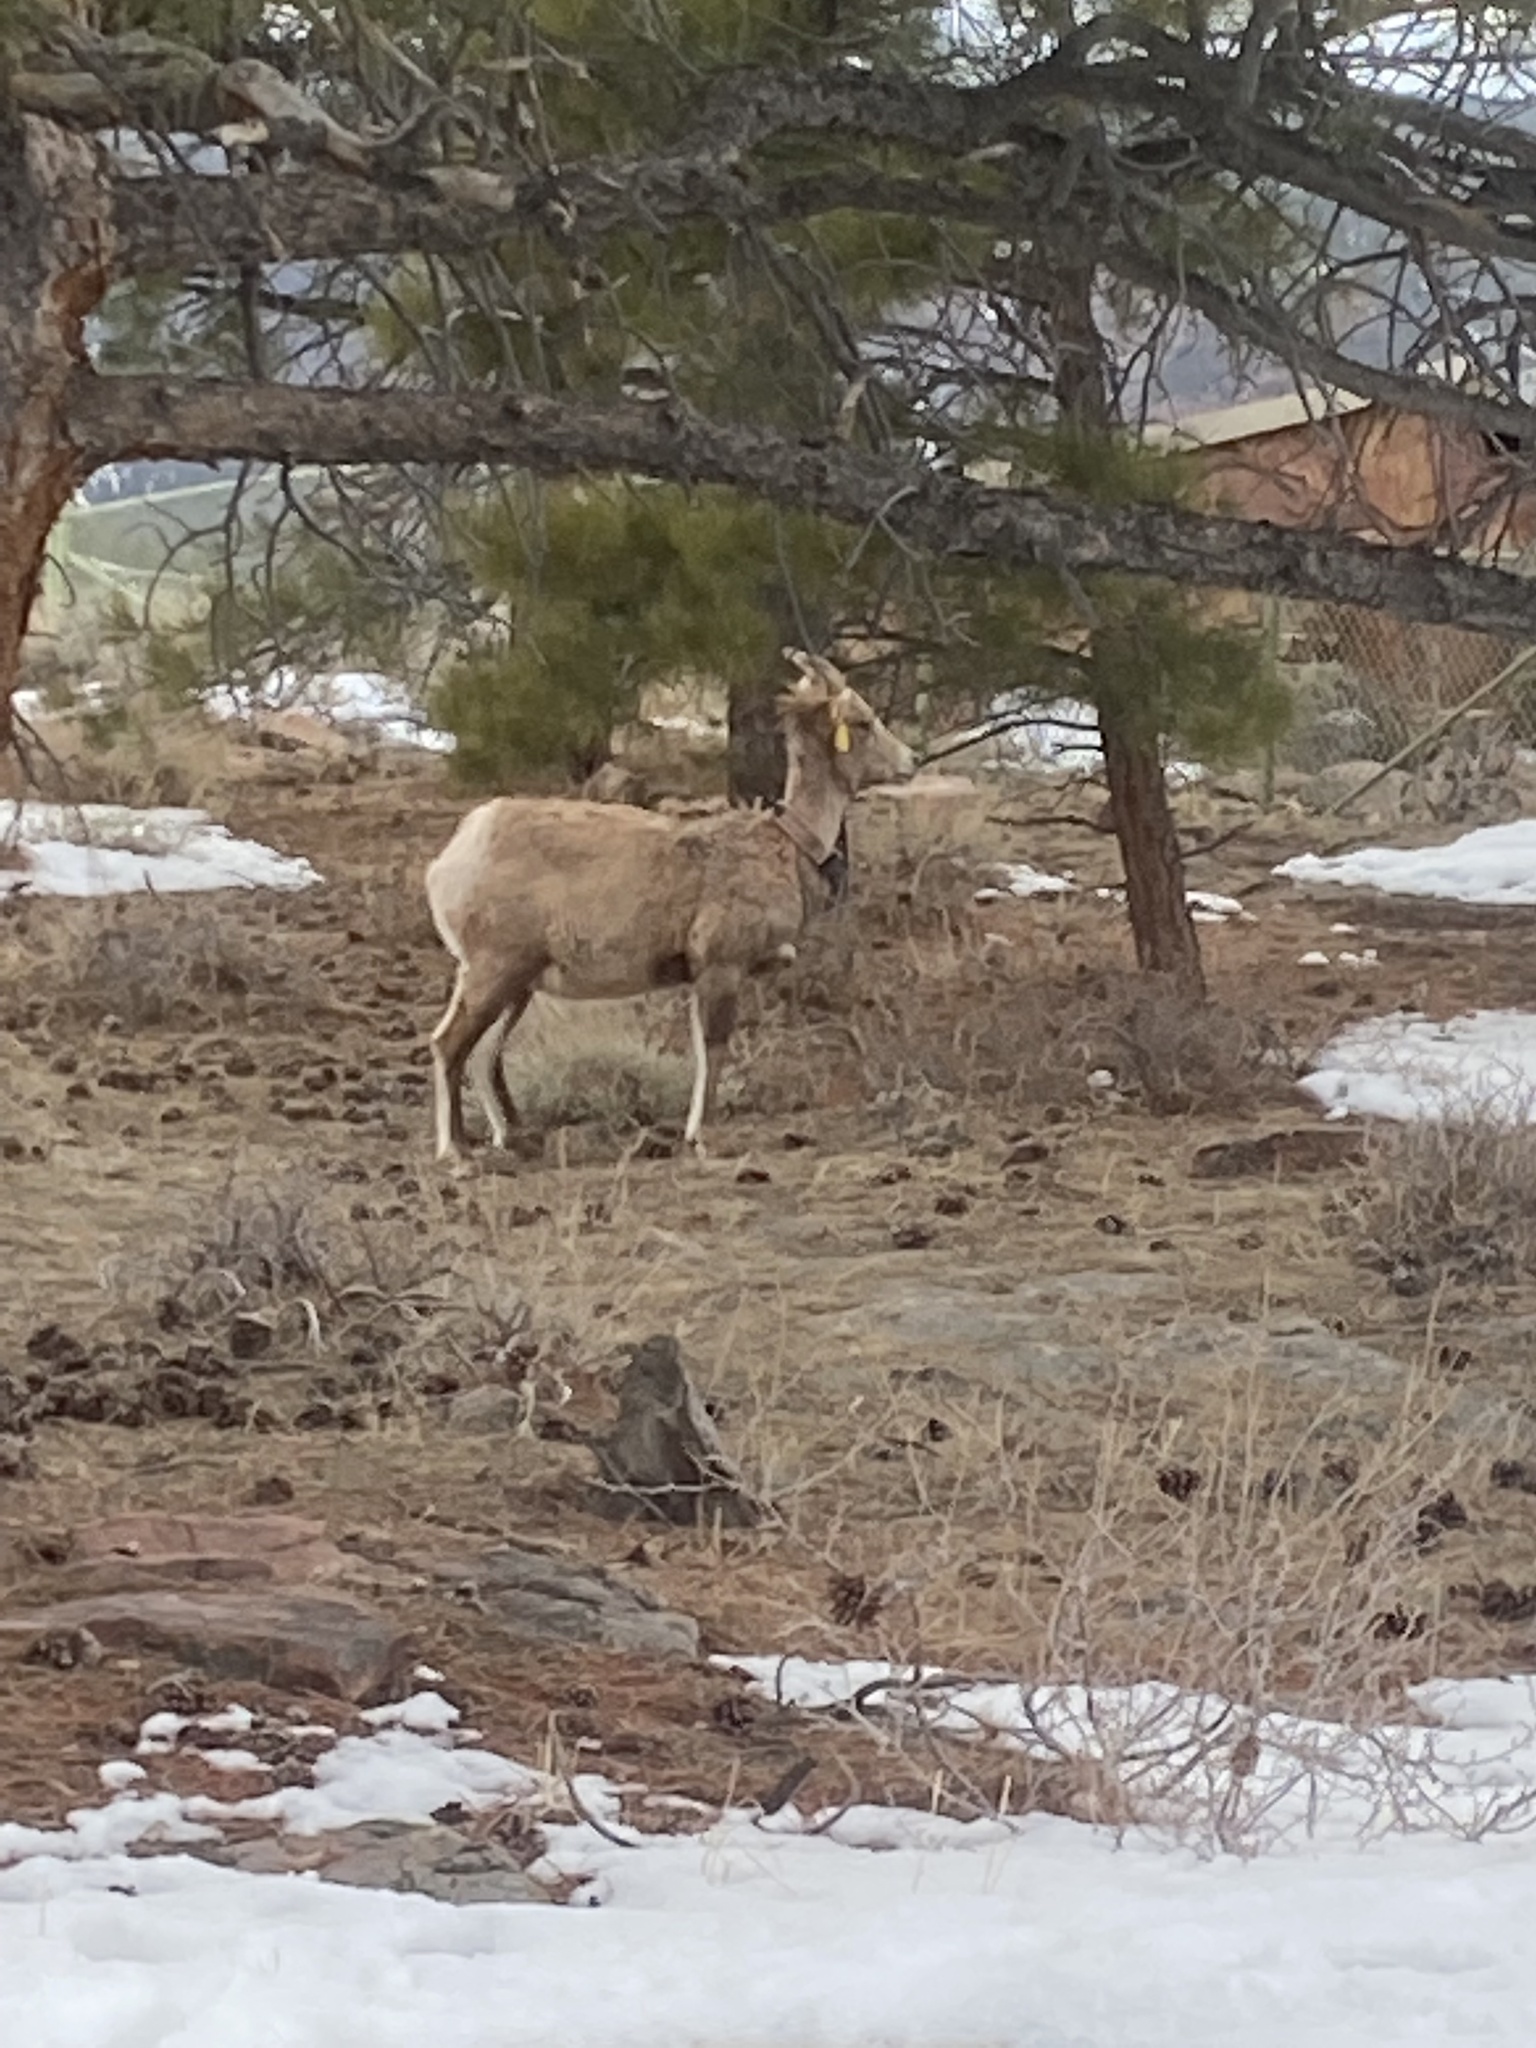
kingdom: Animalia
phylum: Chordata
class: Mammalia
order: Artiodactyla
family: Bovidae
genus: Ovis
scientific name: Ovis canadensis
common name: Bighorn sheep
